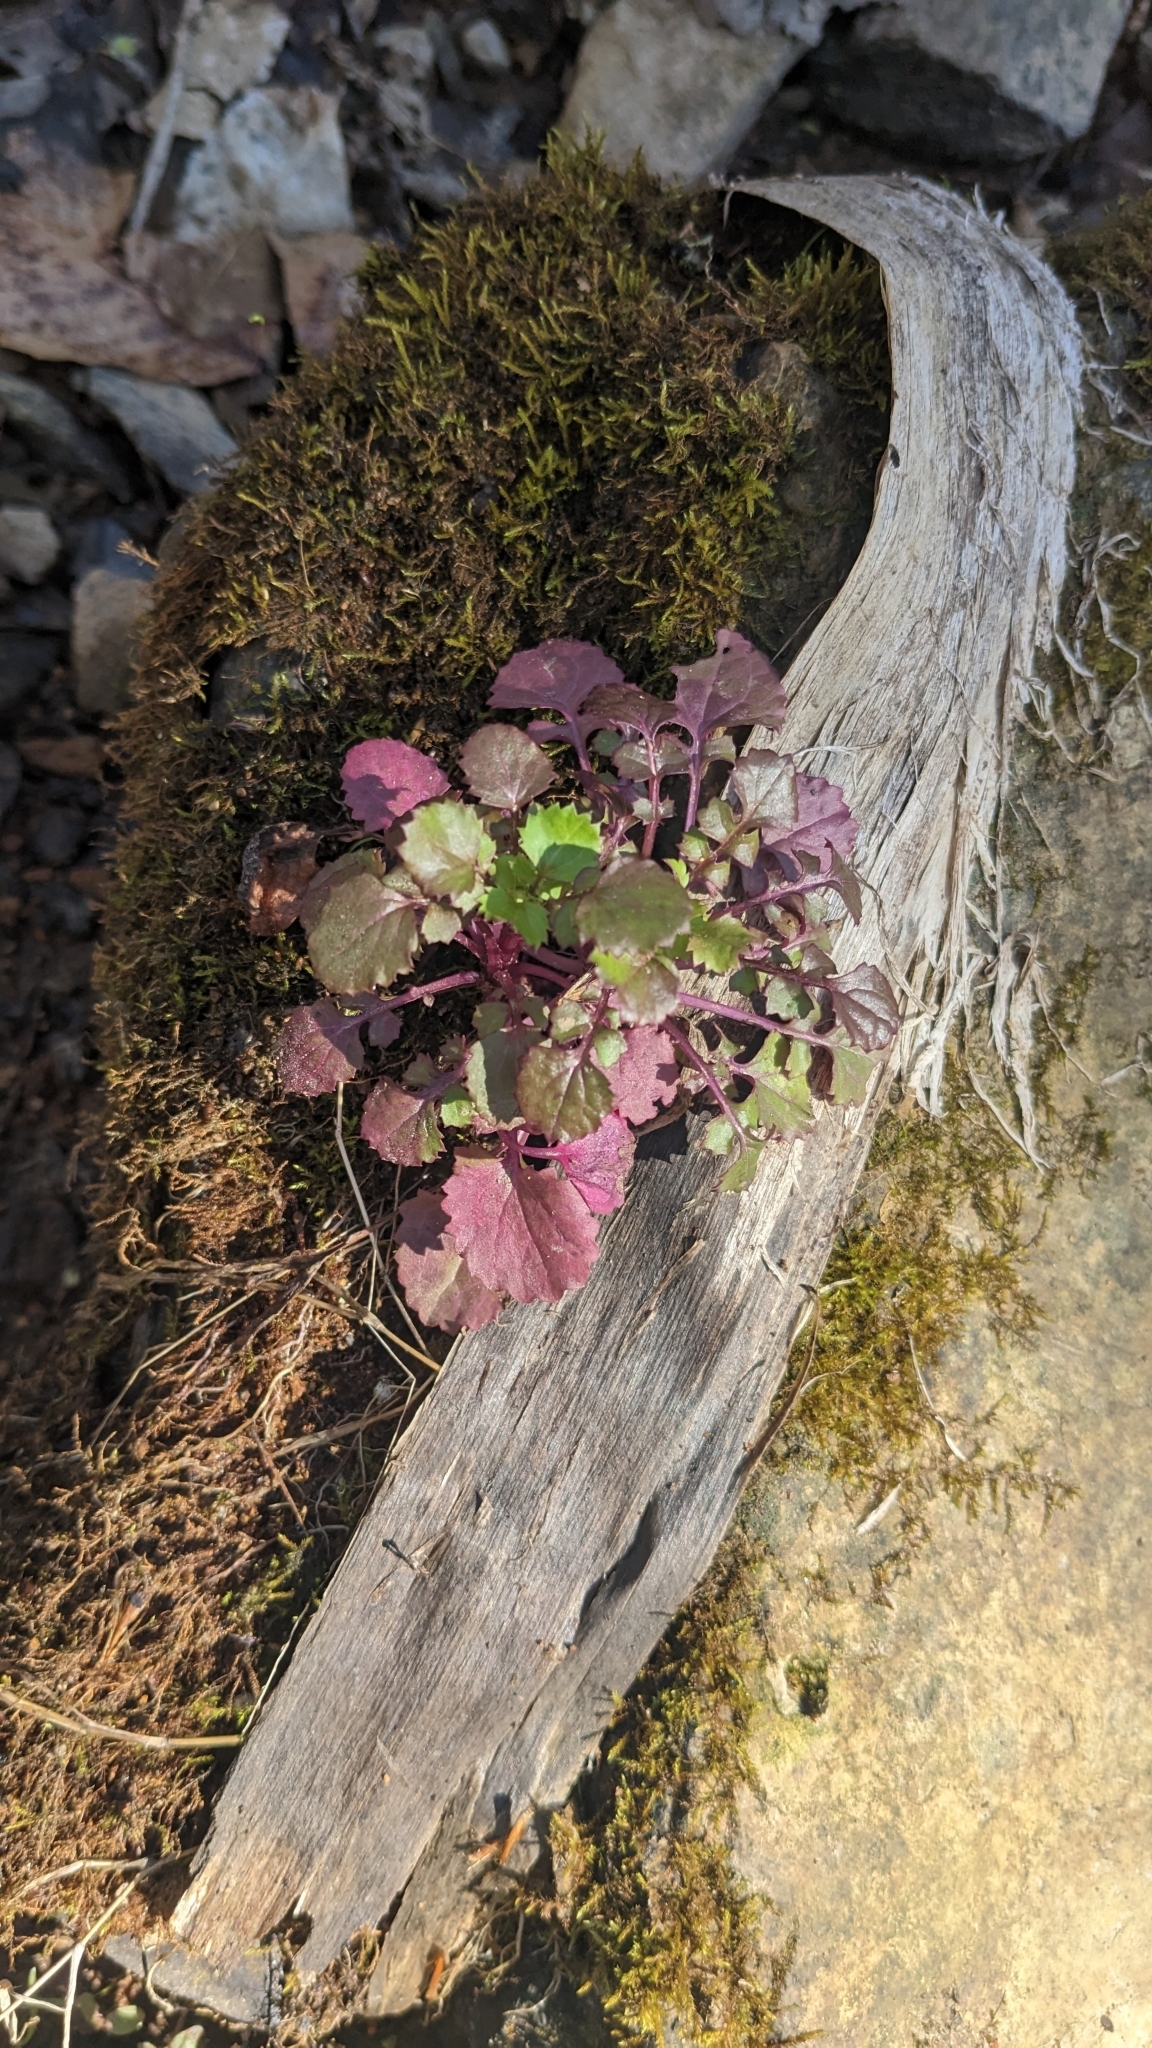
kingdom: Plantae
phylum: Tracheophyta
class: Magnoliopsida
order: Asterales
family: Asteraceae
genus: Packera
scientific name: Packera glabella
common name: Butterweed
